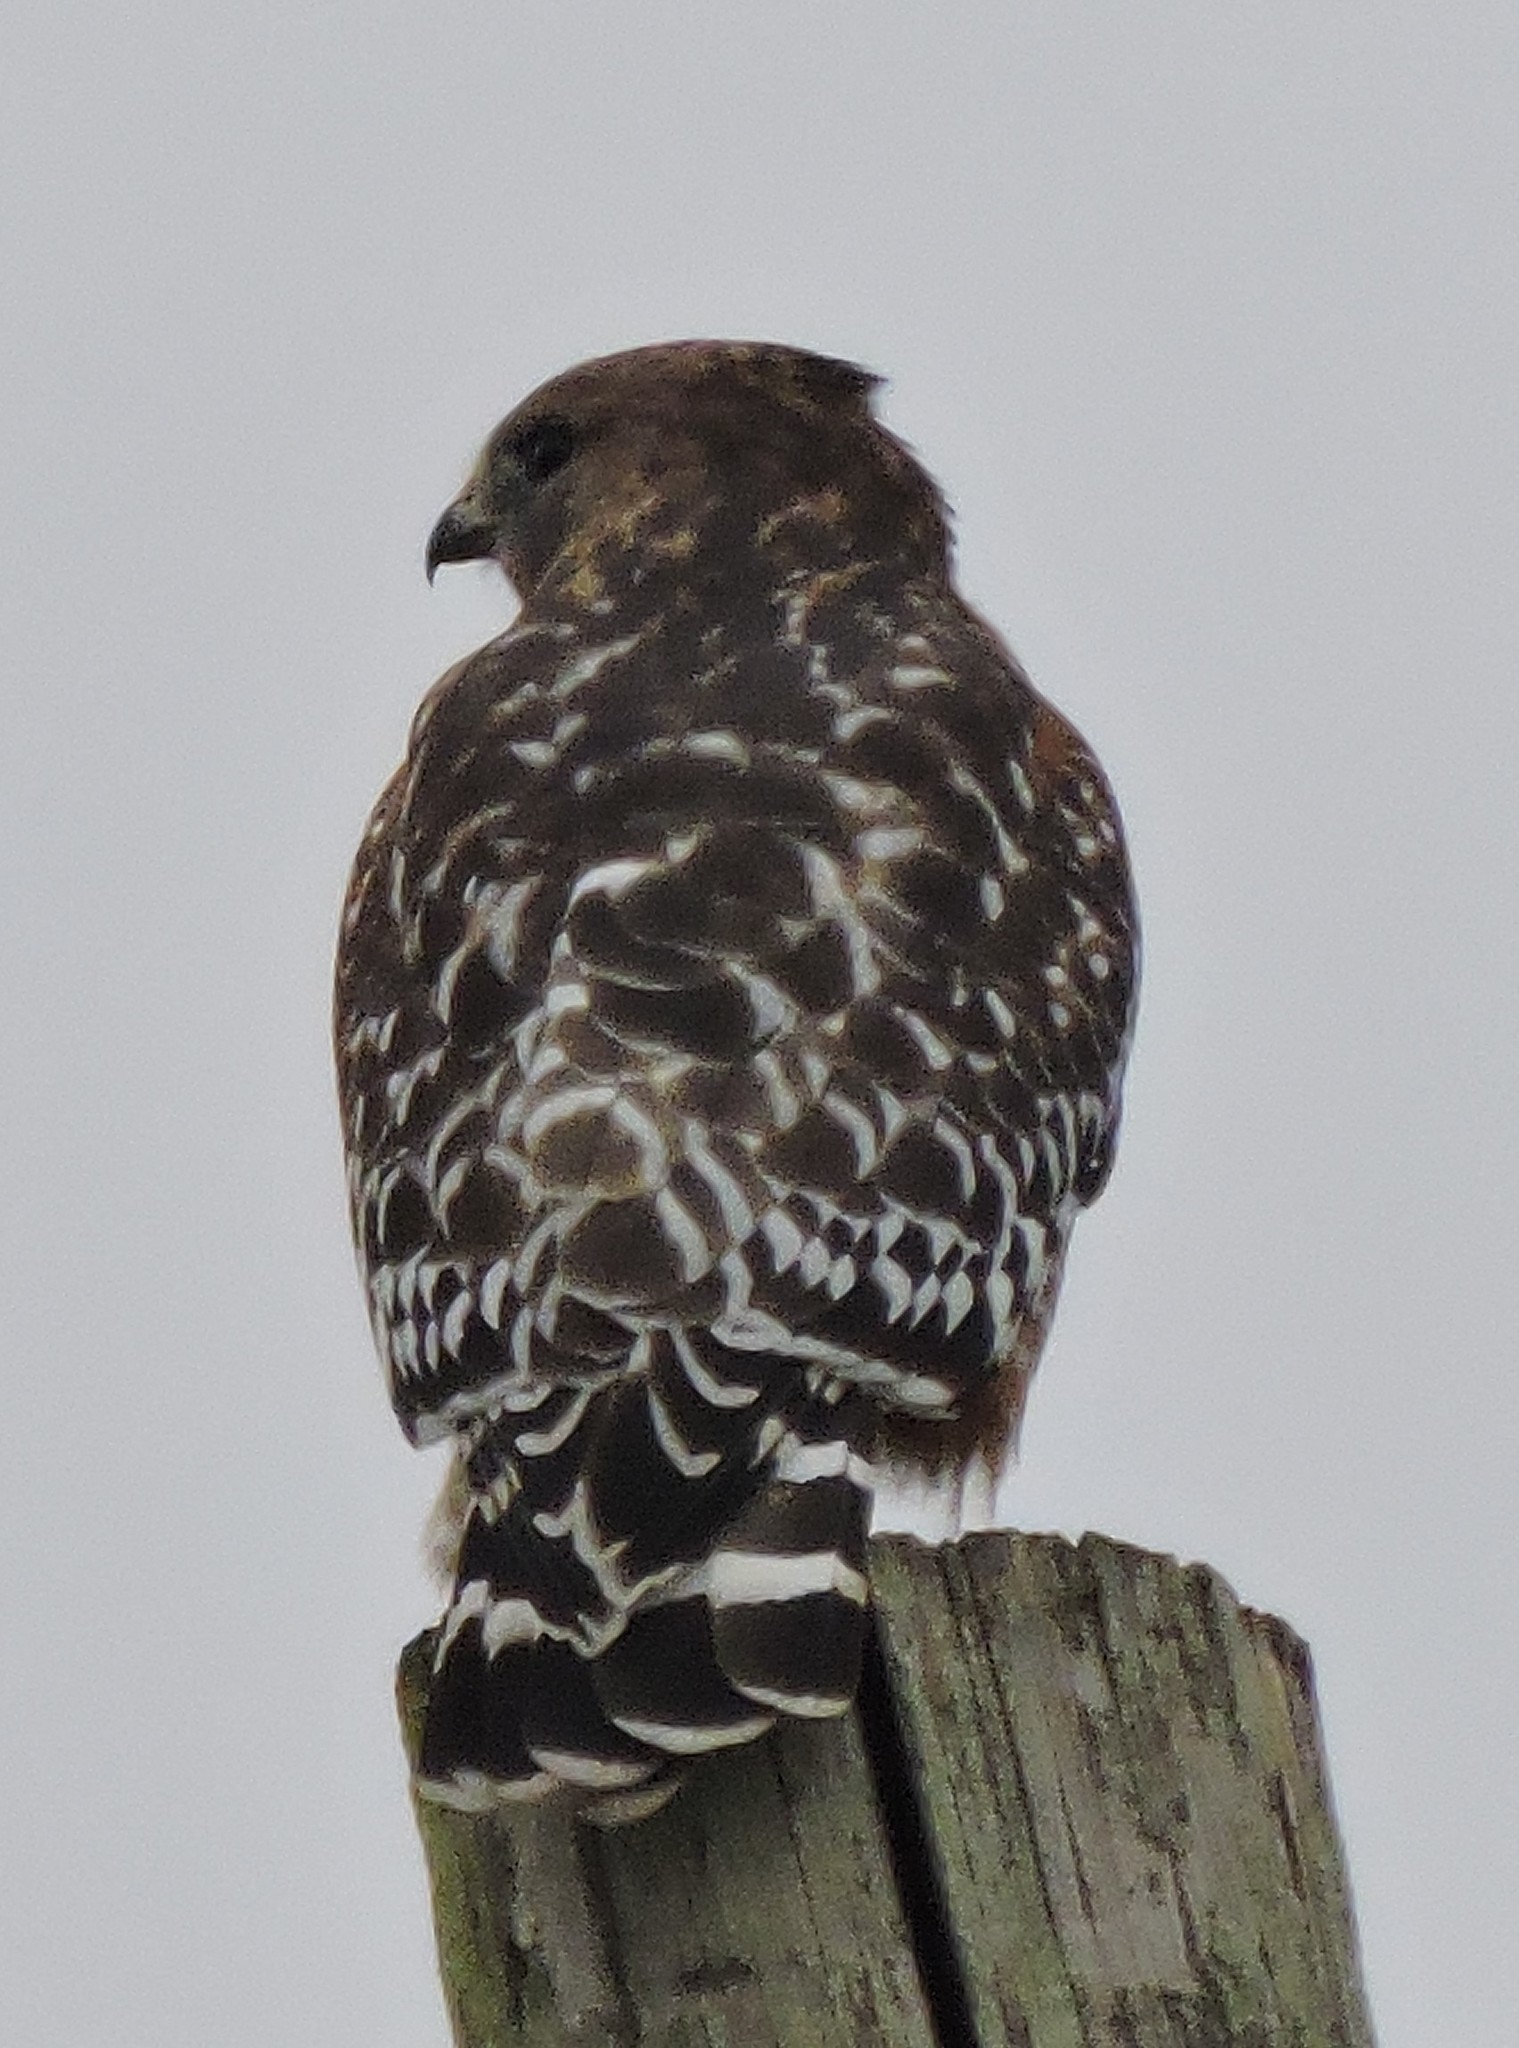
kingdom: Animalia
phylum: Chordata
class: Aves
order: Accipitriformes
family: Accipitridae
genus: Buteo
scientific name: Buteo lineatus
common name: Red-shouldered hawk
